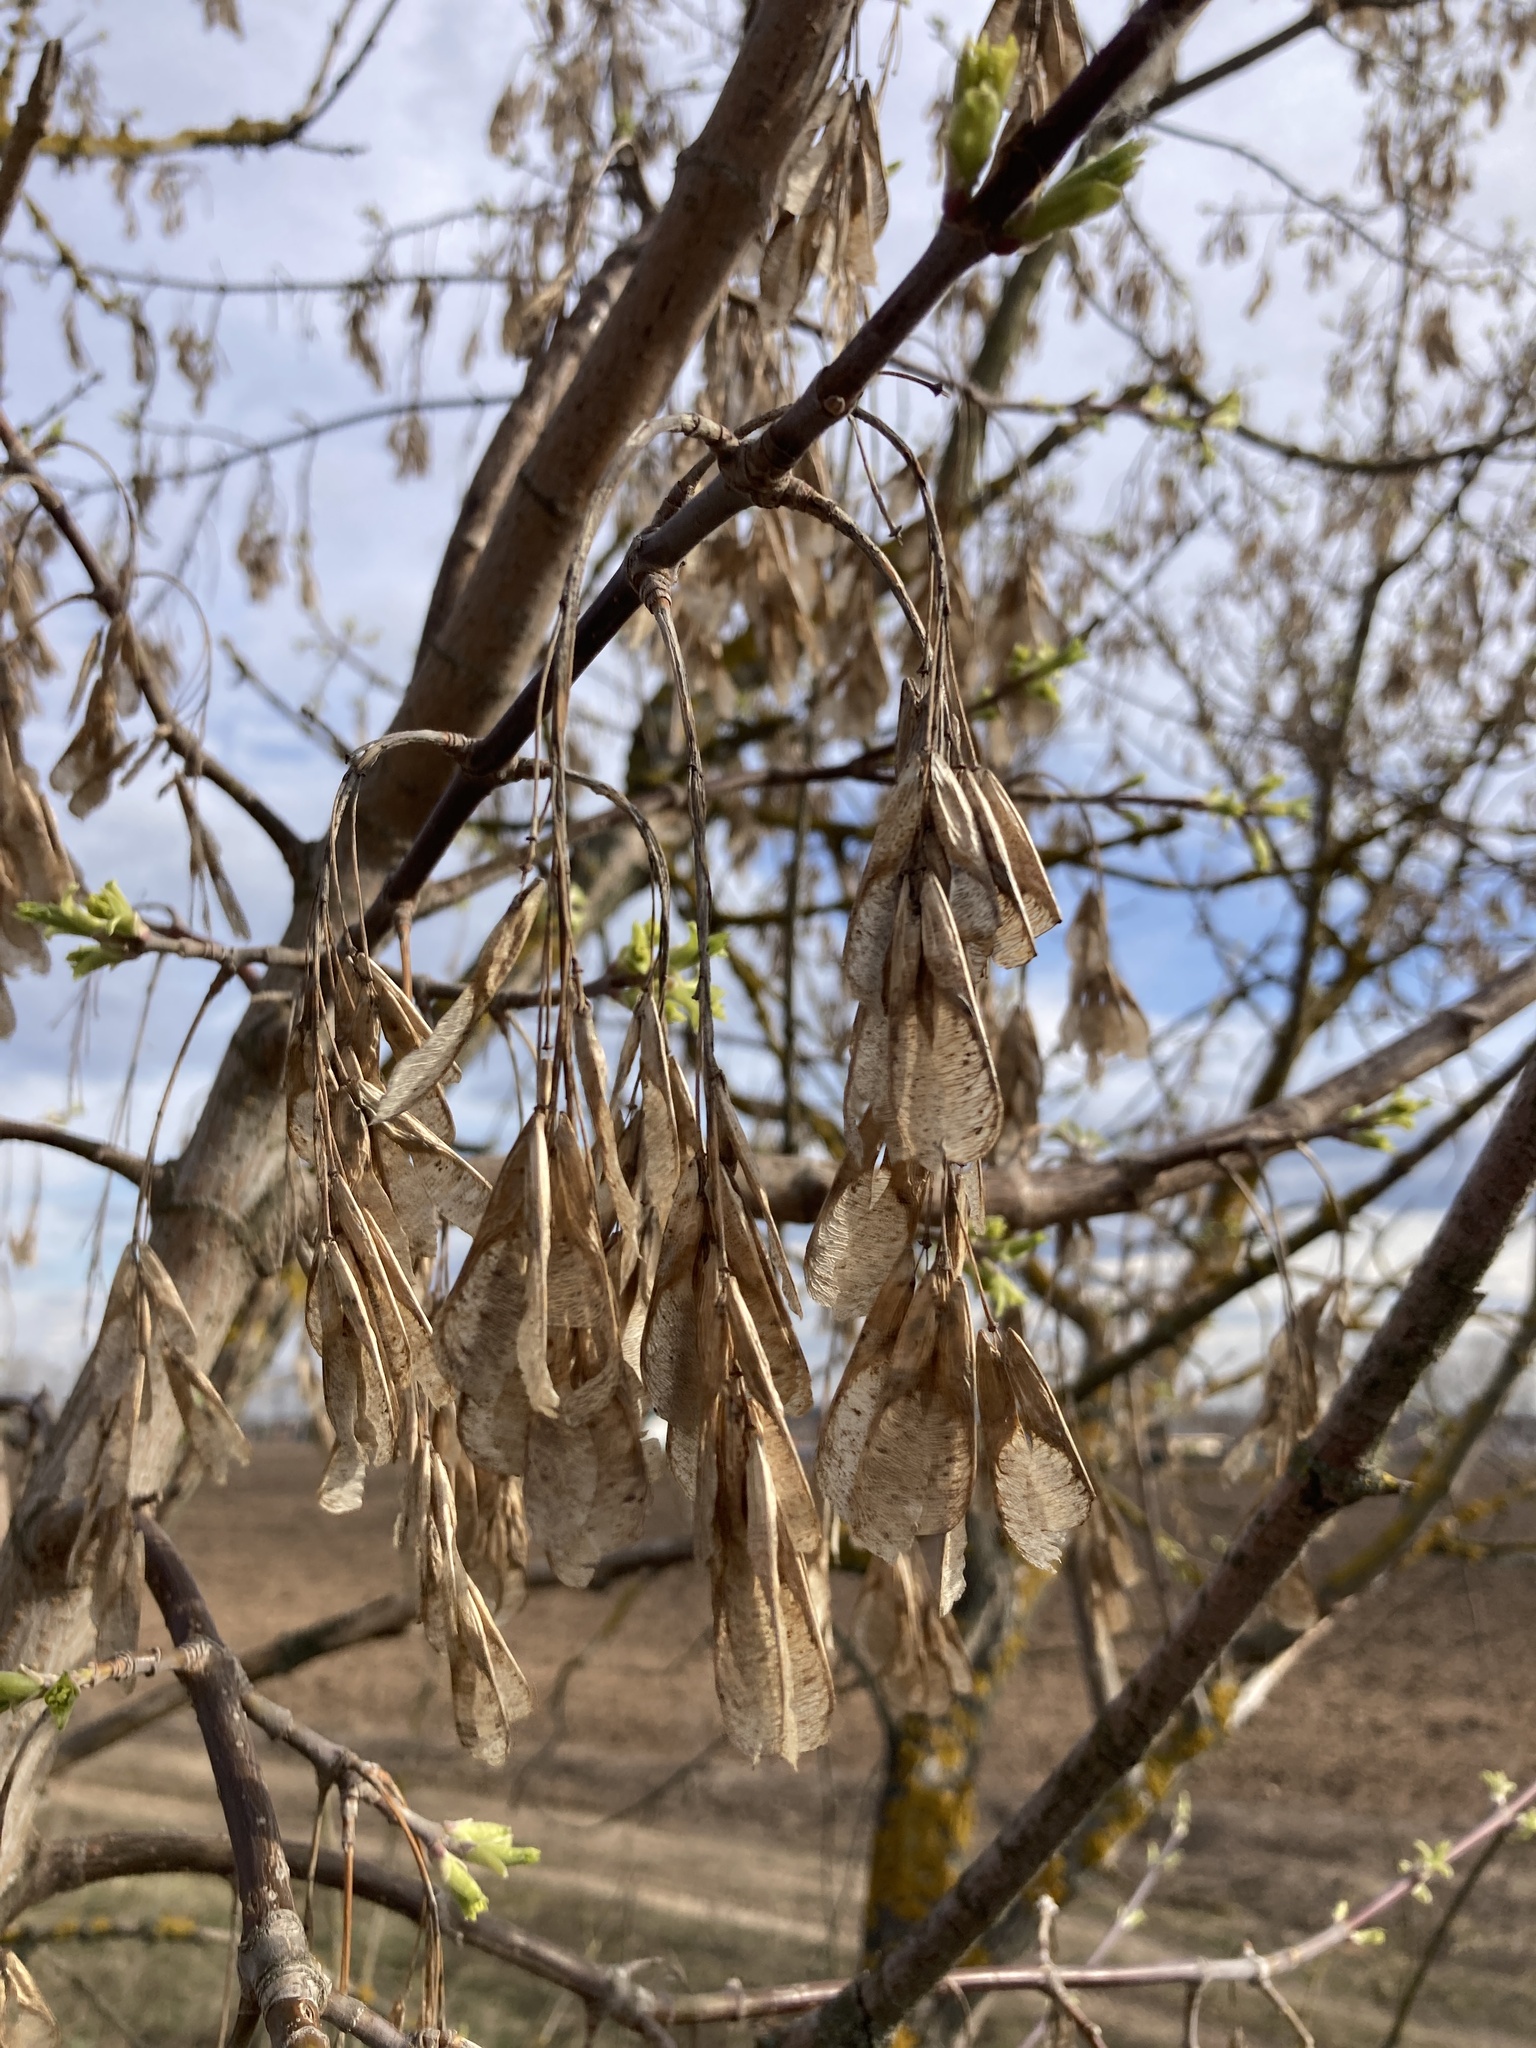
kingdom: Plantae
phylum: Tracheophyta
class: Magnoliopsida
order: Sapindales
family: Sapindaceae
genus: Acer
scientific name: Acer negundo
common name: Ashleaf maple
